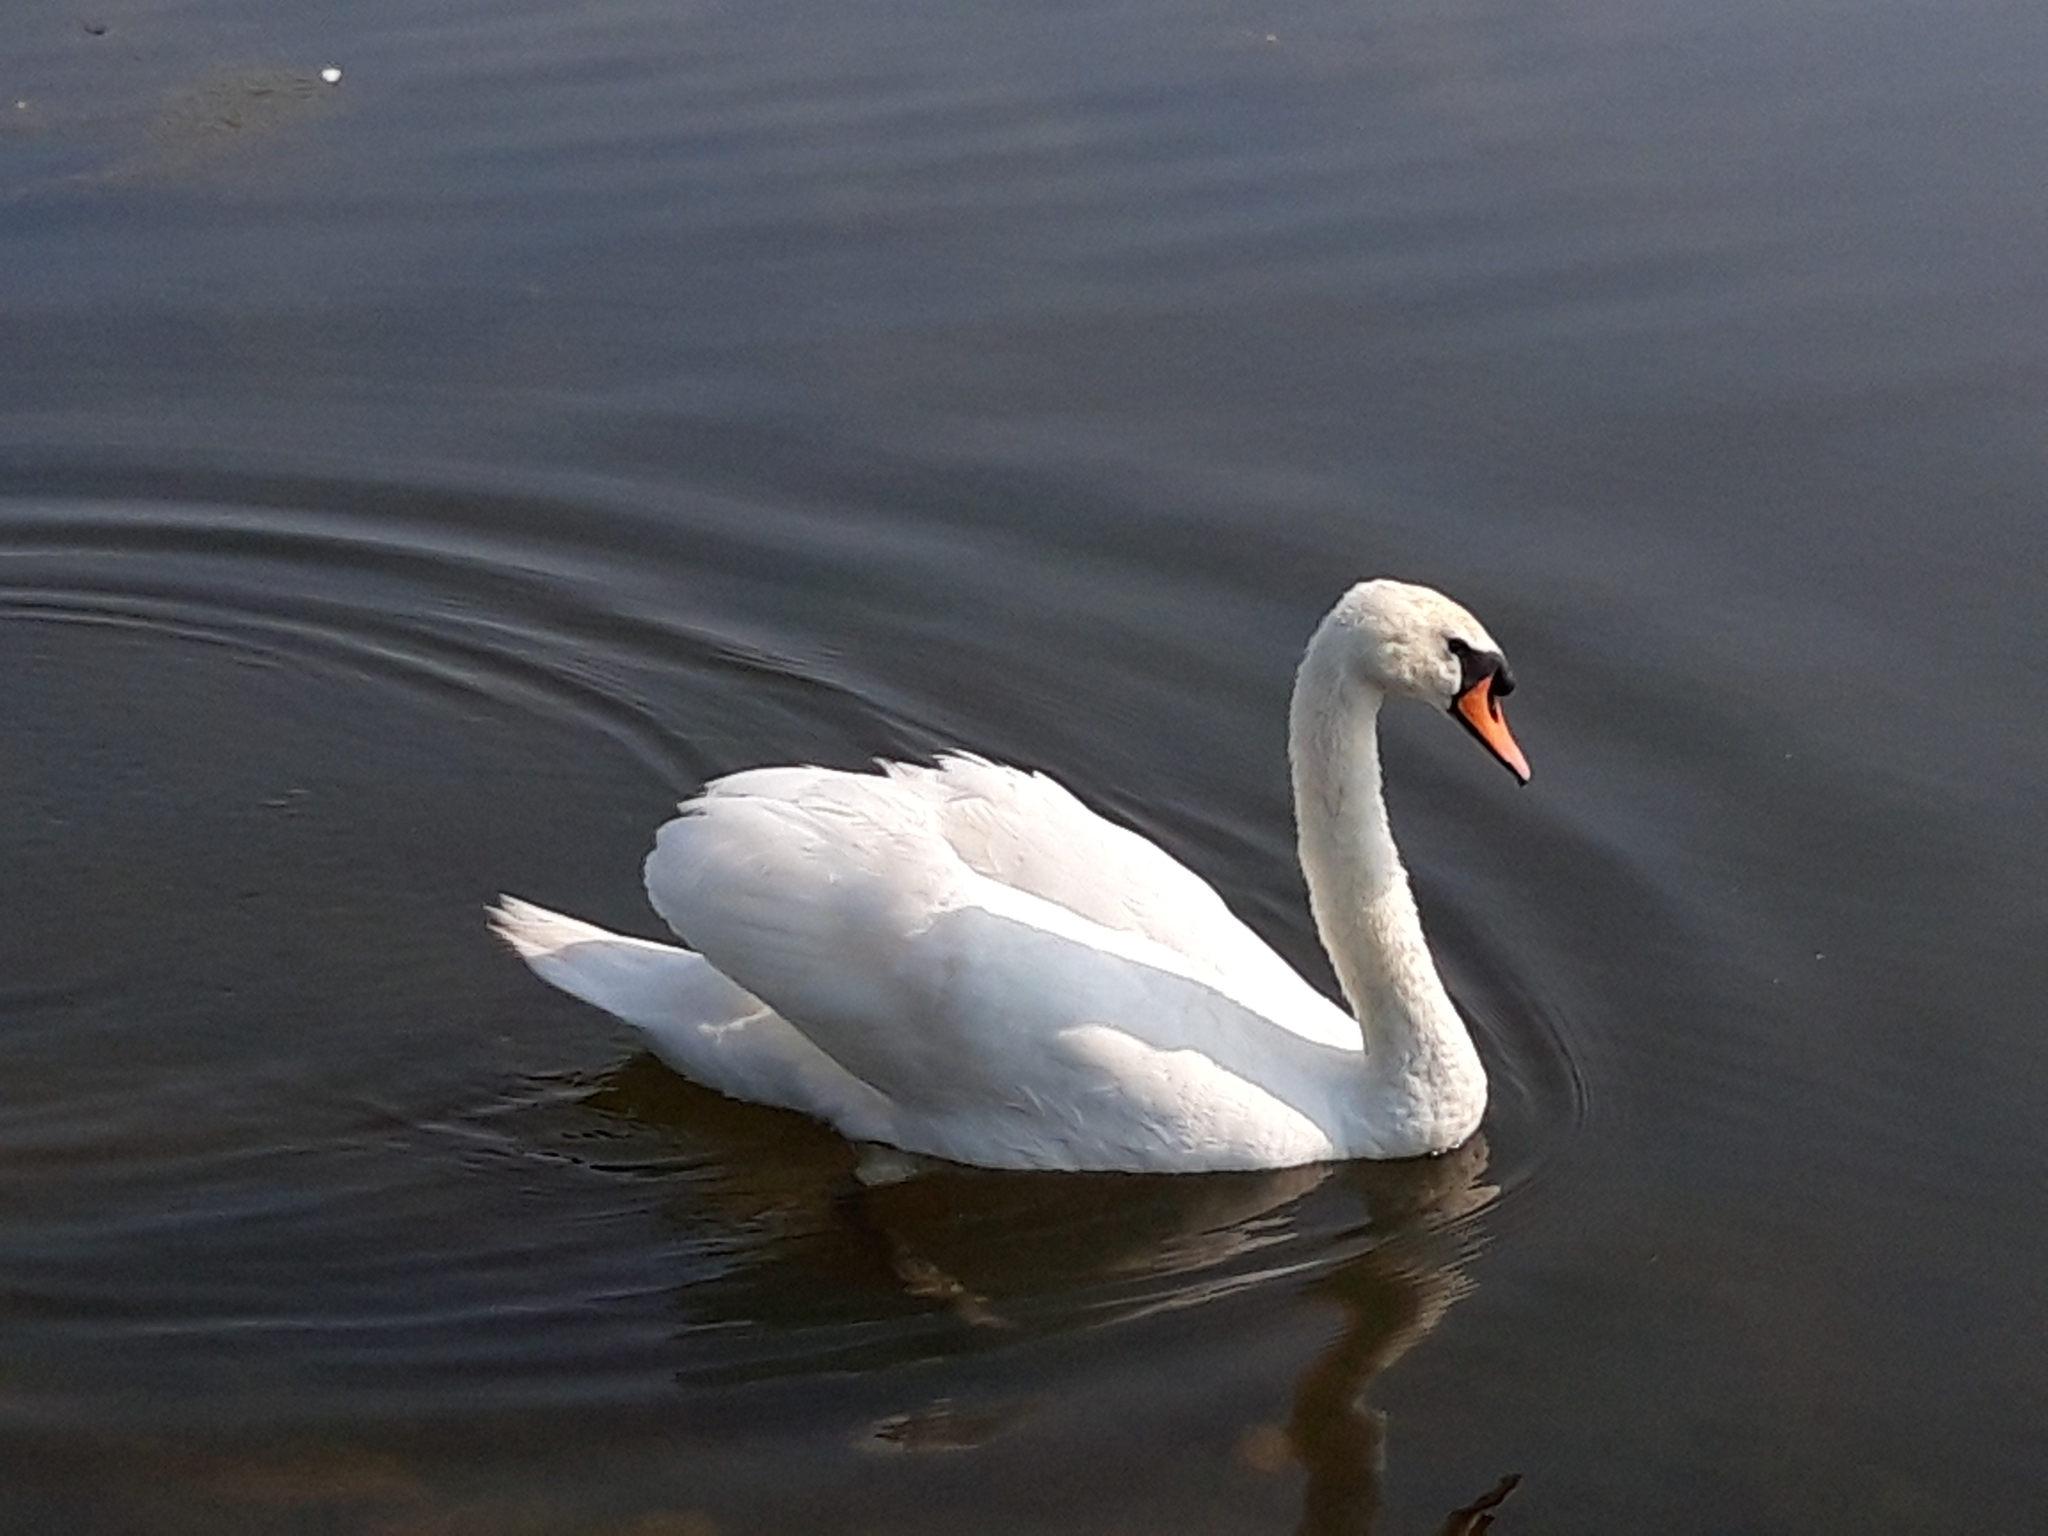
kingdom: Animalia
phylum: Chordata
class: Aves
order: Anseriformes
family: Anatidae
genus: Cygnus
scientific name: Cygnus olor
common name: Mute swan
